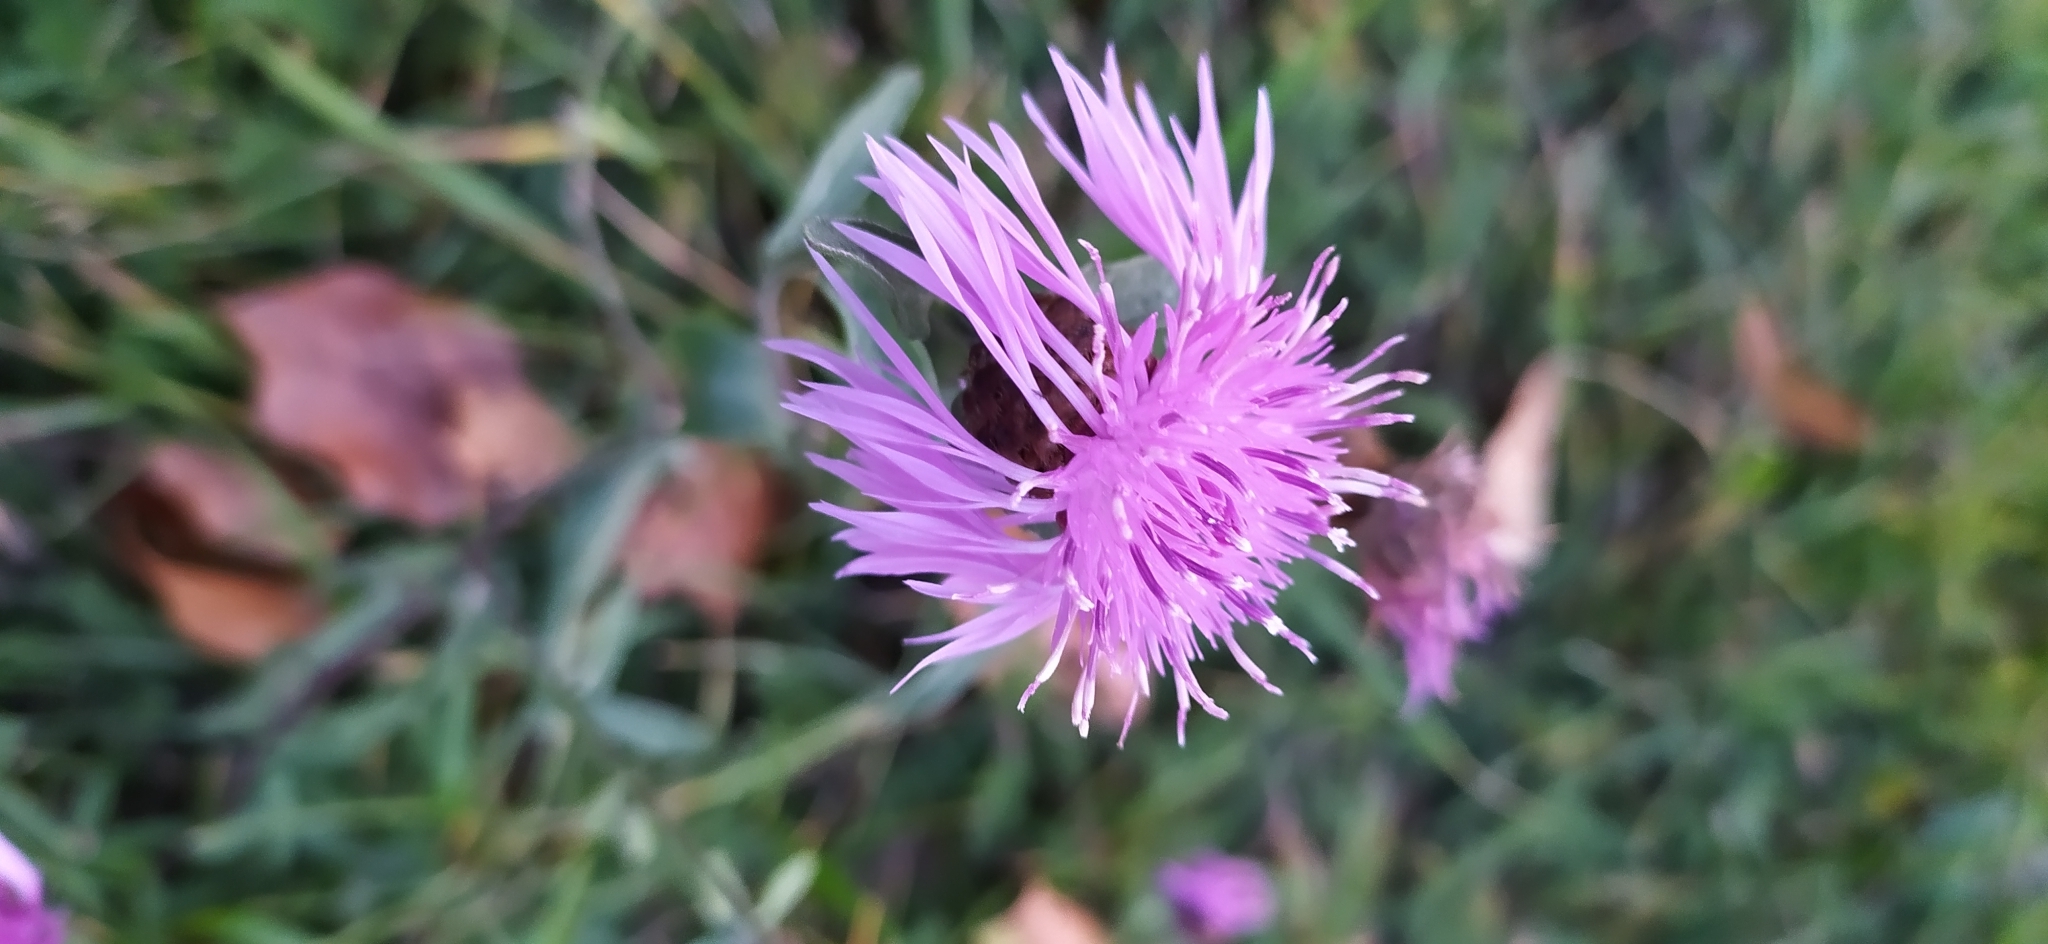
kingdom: Plantae
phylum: Tracheophyta
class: Magnoliopsida
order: Asterales
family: Asteraceae
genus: Centaurea
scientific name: Centaurea jacea
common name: Brown knapweed
